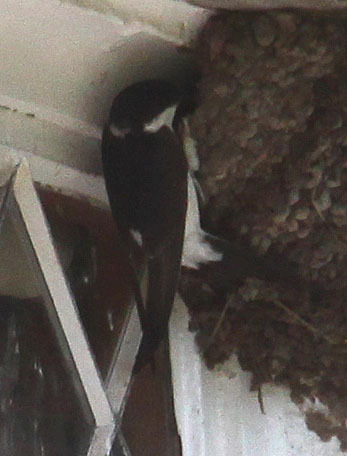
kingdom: Animalia
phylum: Chordata
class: Aves
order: Passeriformes
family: Hirundinidae
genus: Delichon
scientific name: Delichon urbicum
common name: Common house martin
